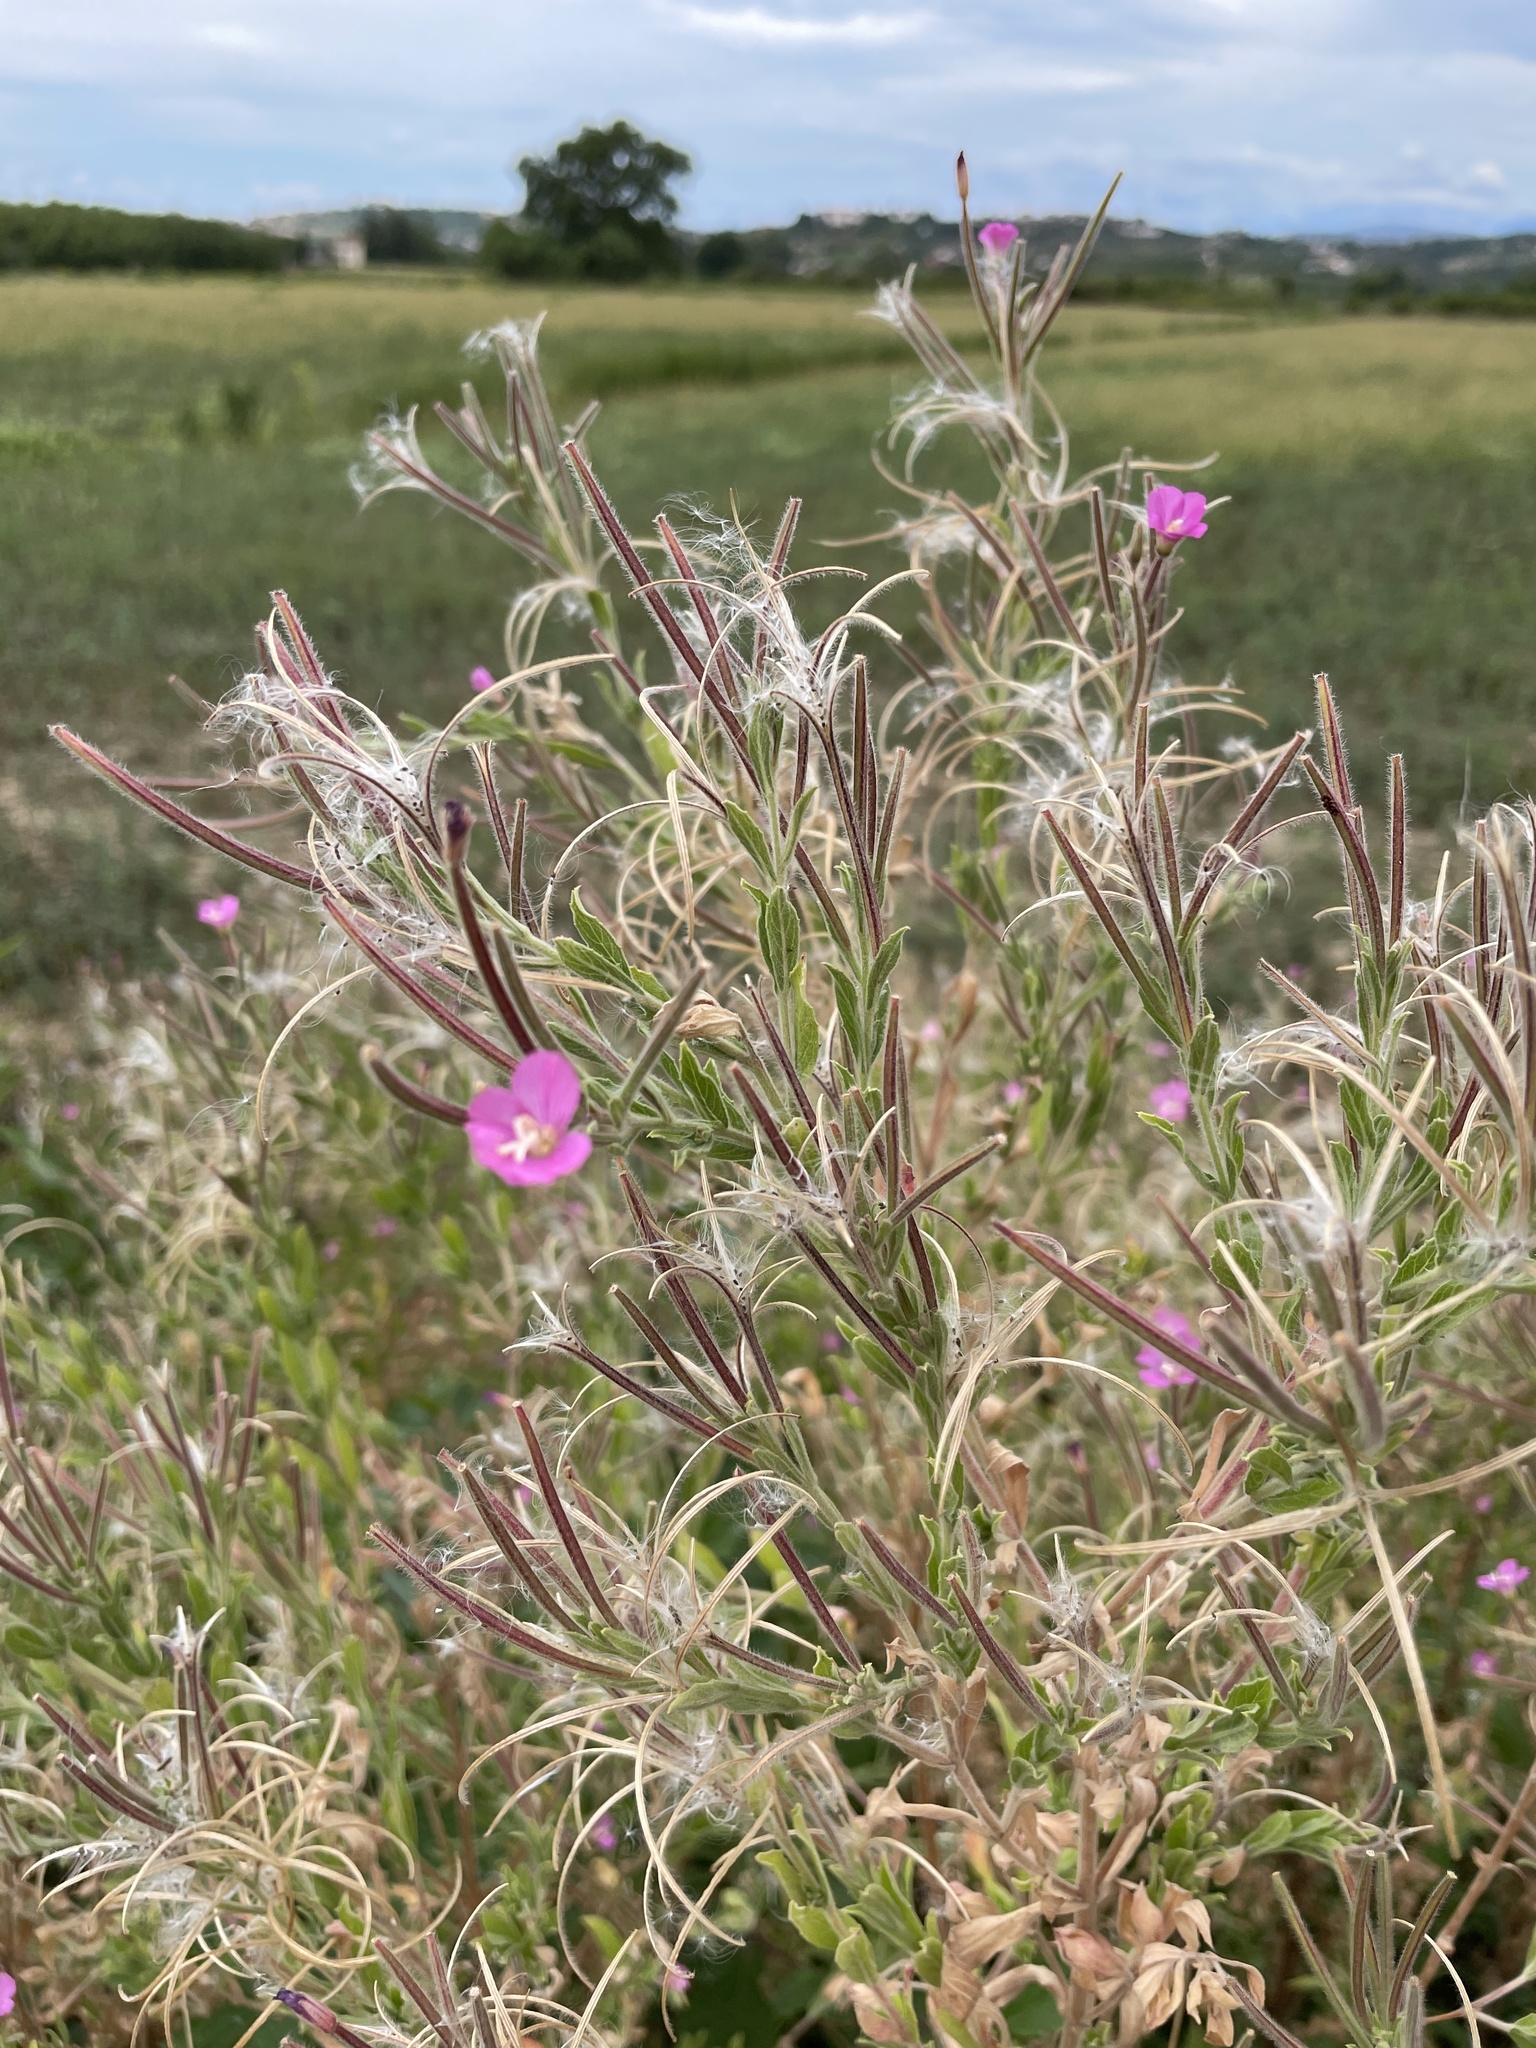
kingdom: Plantae
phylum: Tracheophyta
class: Magnoliopsida
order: Myrtales
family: Onagraceae
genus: Epilobium
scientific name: Epilobium hirsutum
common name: Great willowherb
